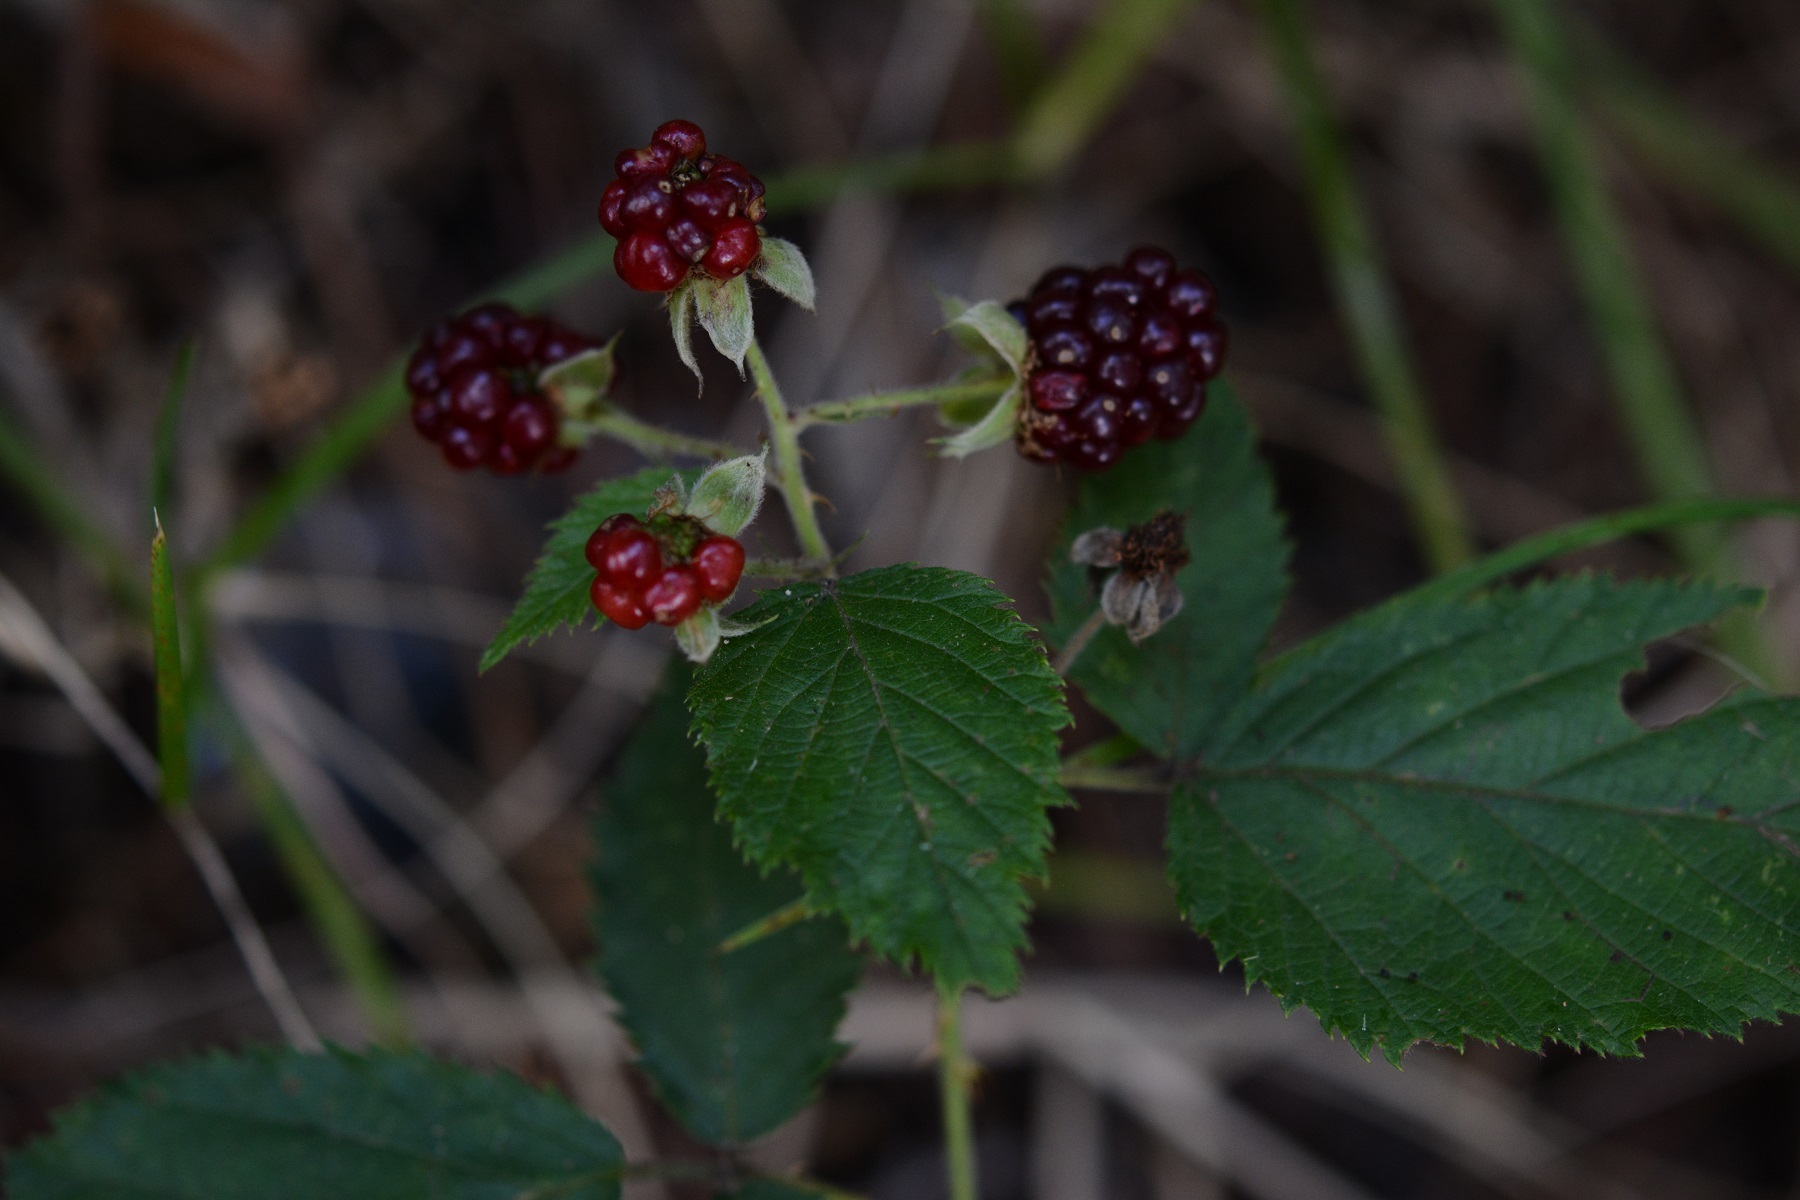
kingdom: Plantae
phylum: Tracheophyta
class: Magnoliopsida
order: Rosales
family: Rosaceae
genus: Rubus
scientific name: Rubus sapidus
